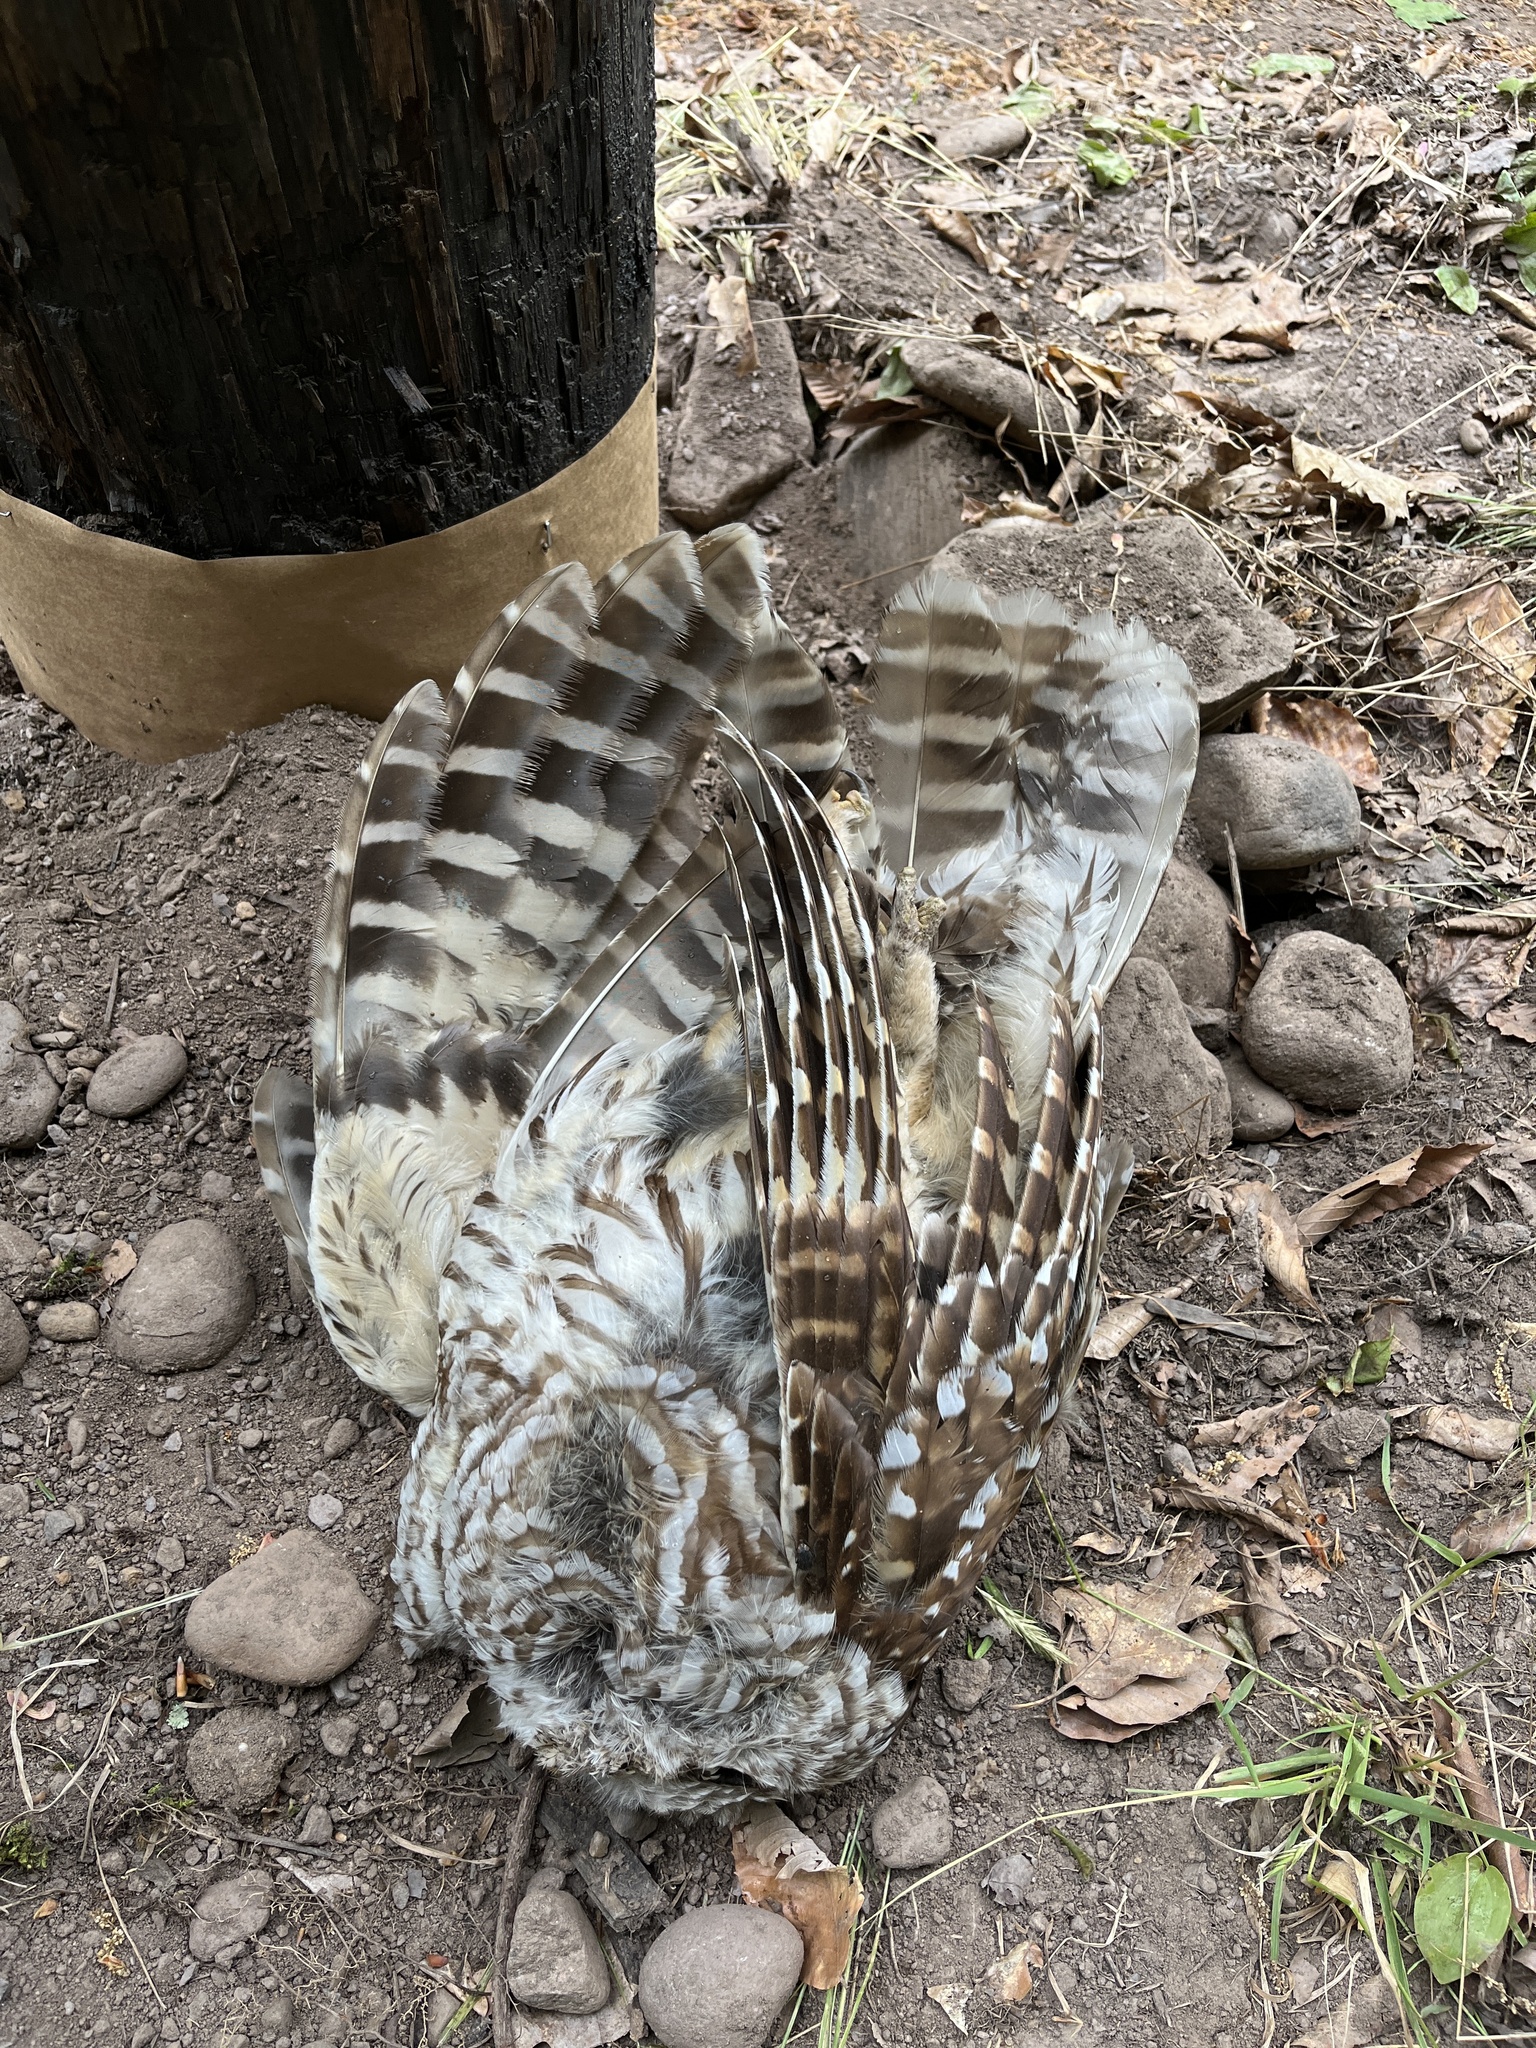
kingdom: Animalia
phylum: Chordata
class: Aves
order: Strigiformes
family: Strigidae
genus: Strix
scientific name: Strix varia
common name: Barred owl
